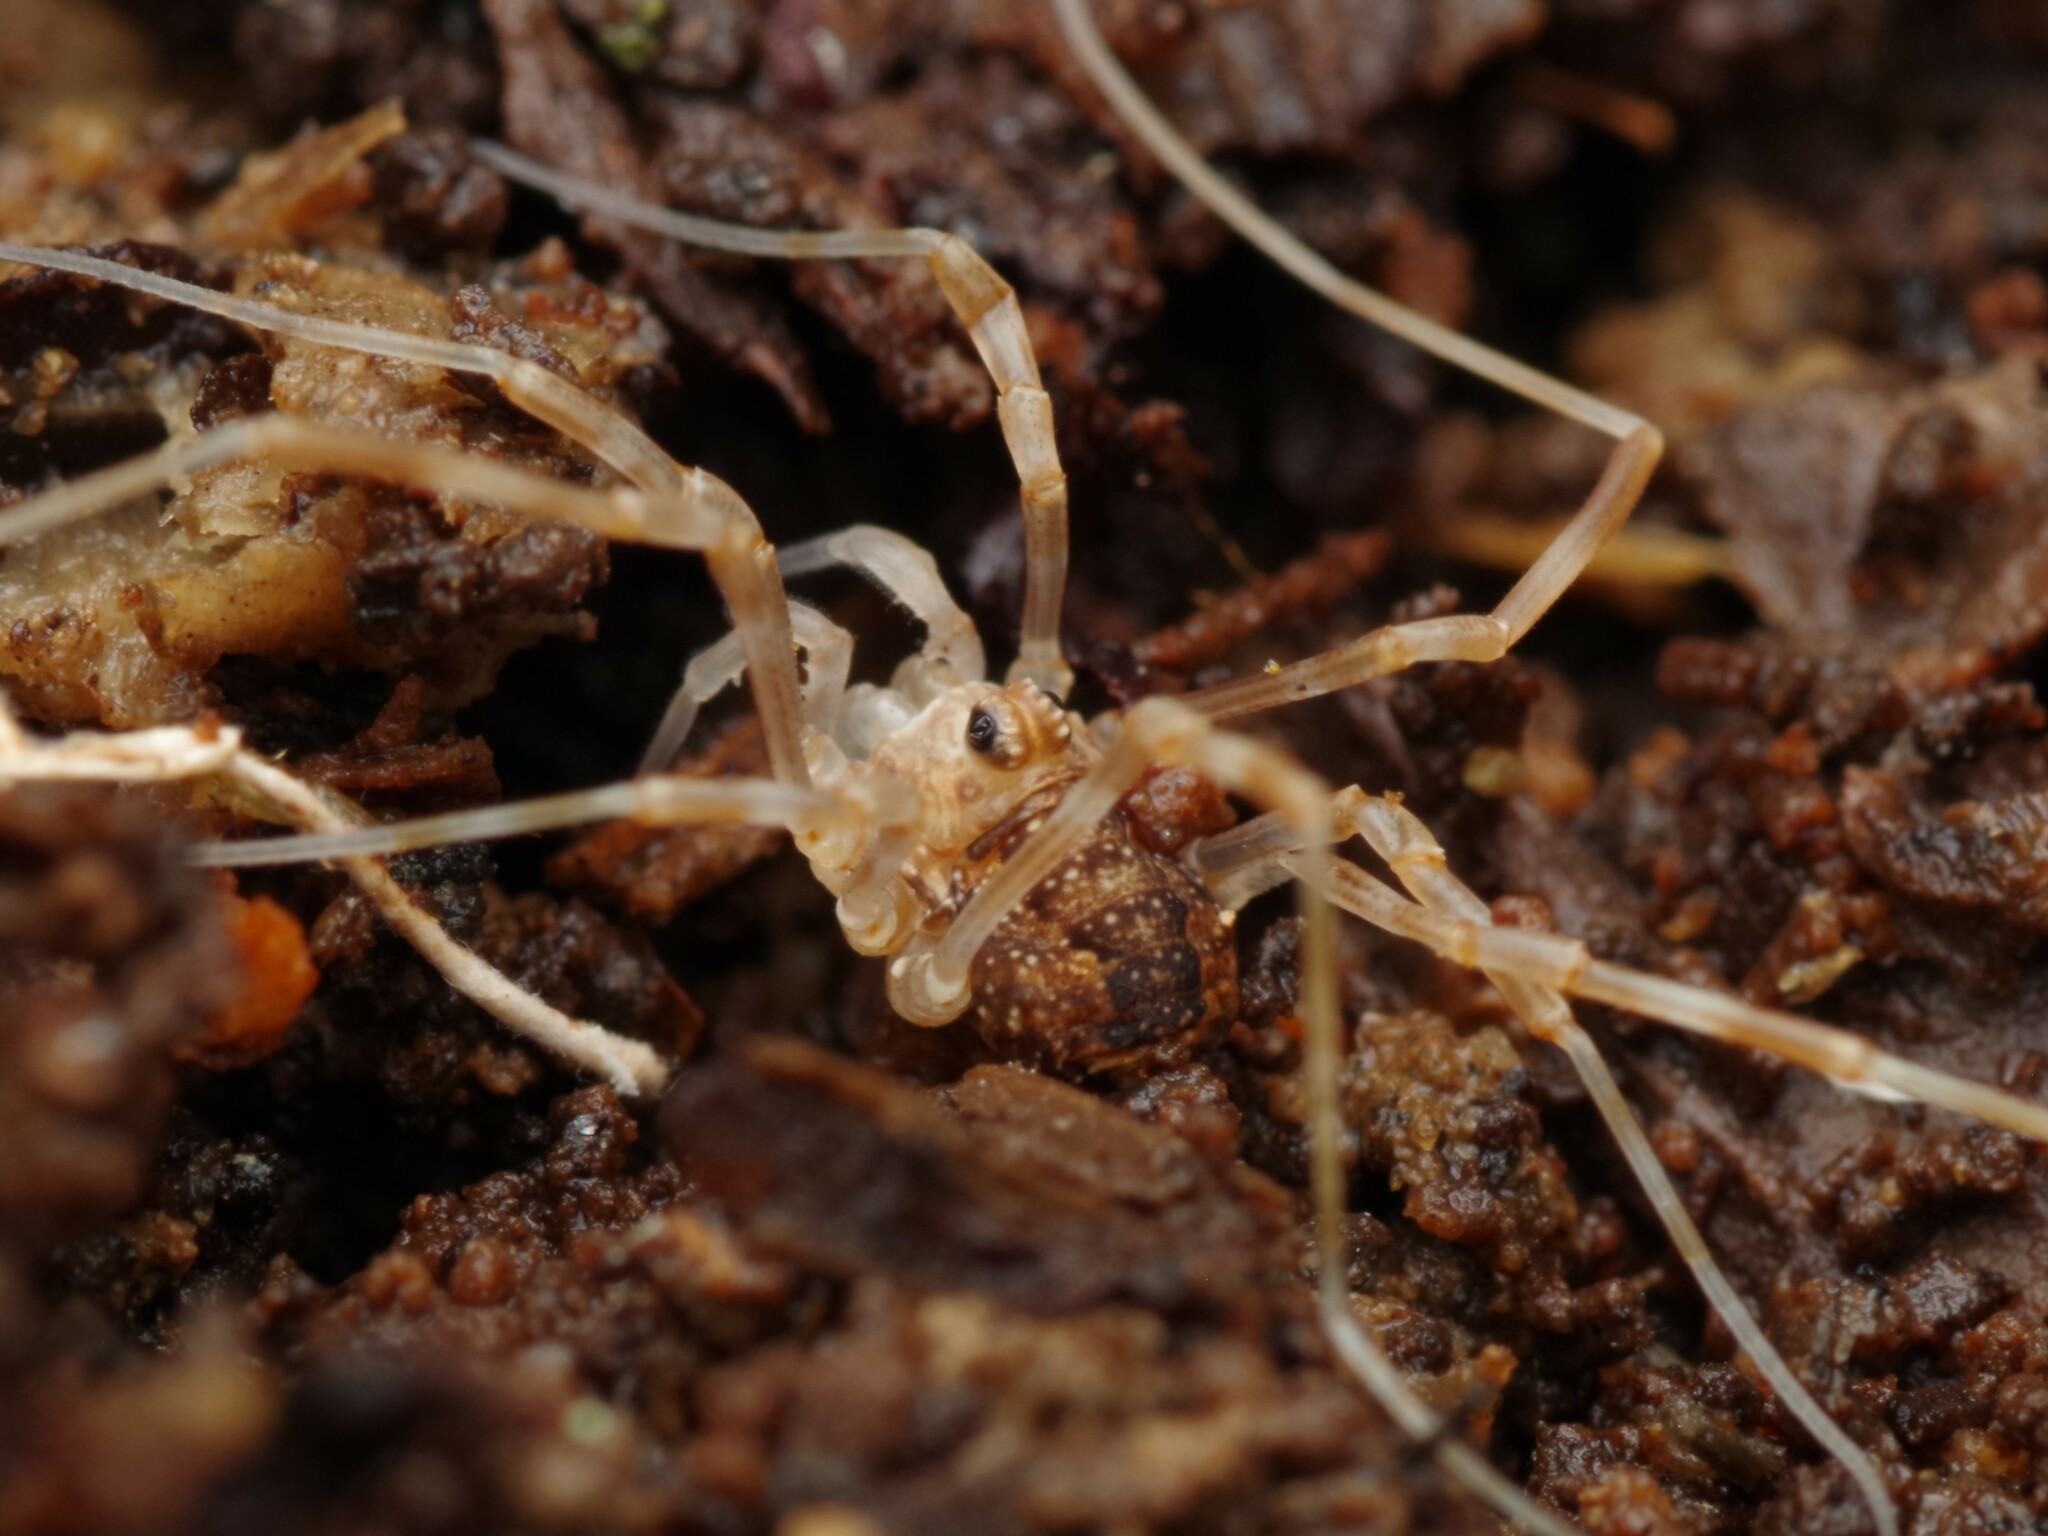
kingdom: Animalia
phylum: Arthropoda
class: Arachnida
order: Opiliones
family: Phalangiidae
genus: Rilaena
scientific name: Rilaena triangularis
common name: Spring harvestman
